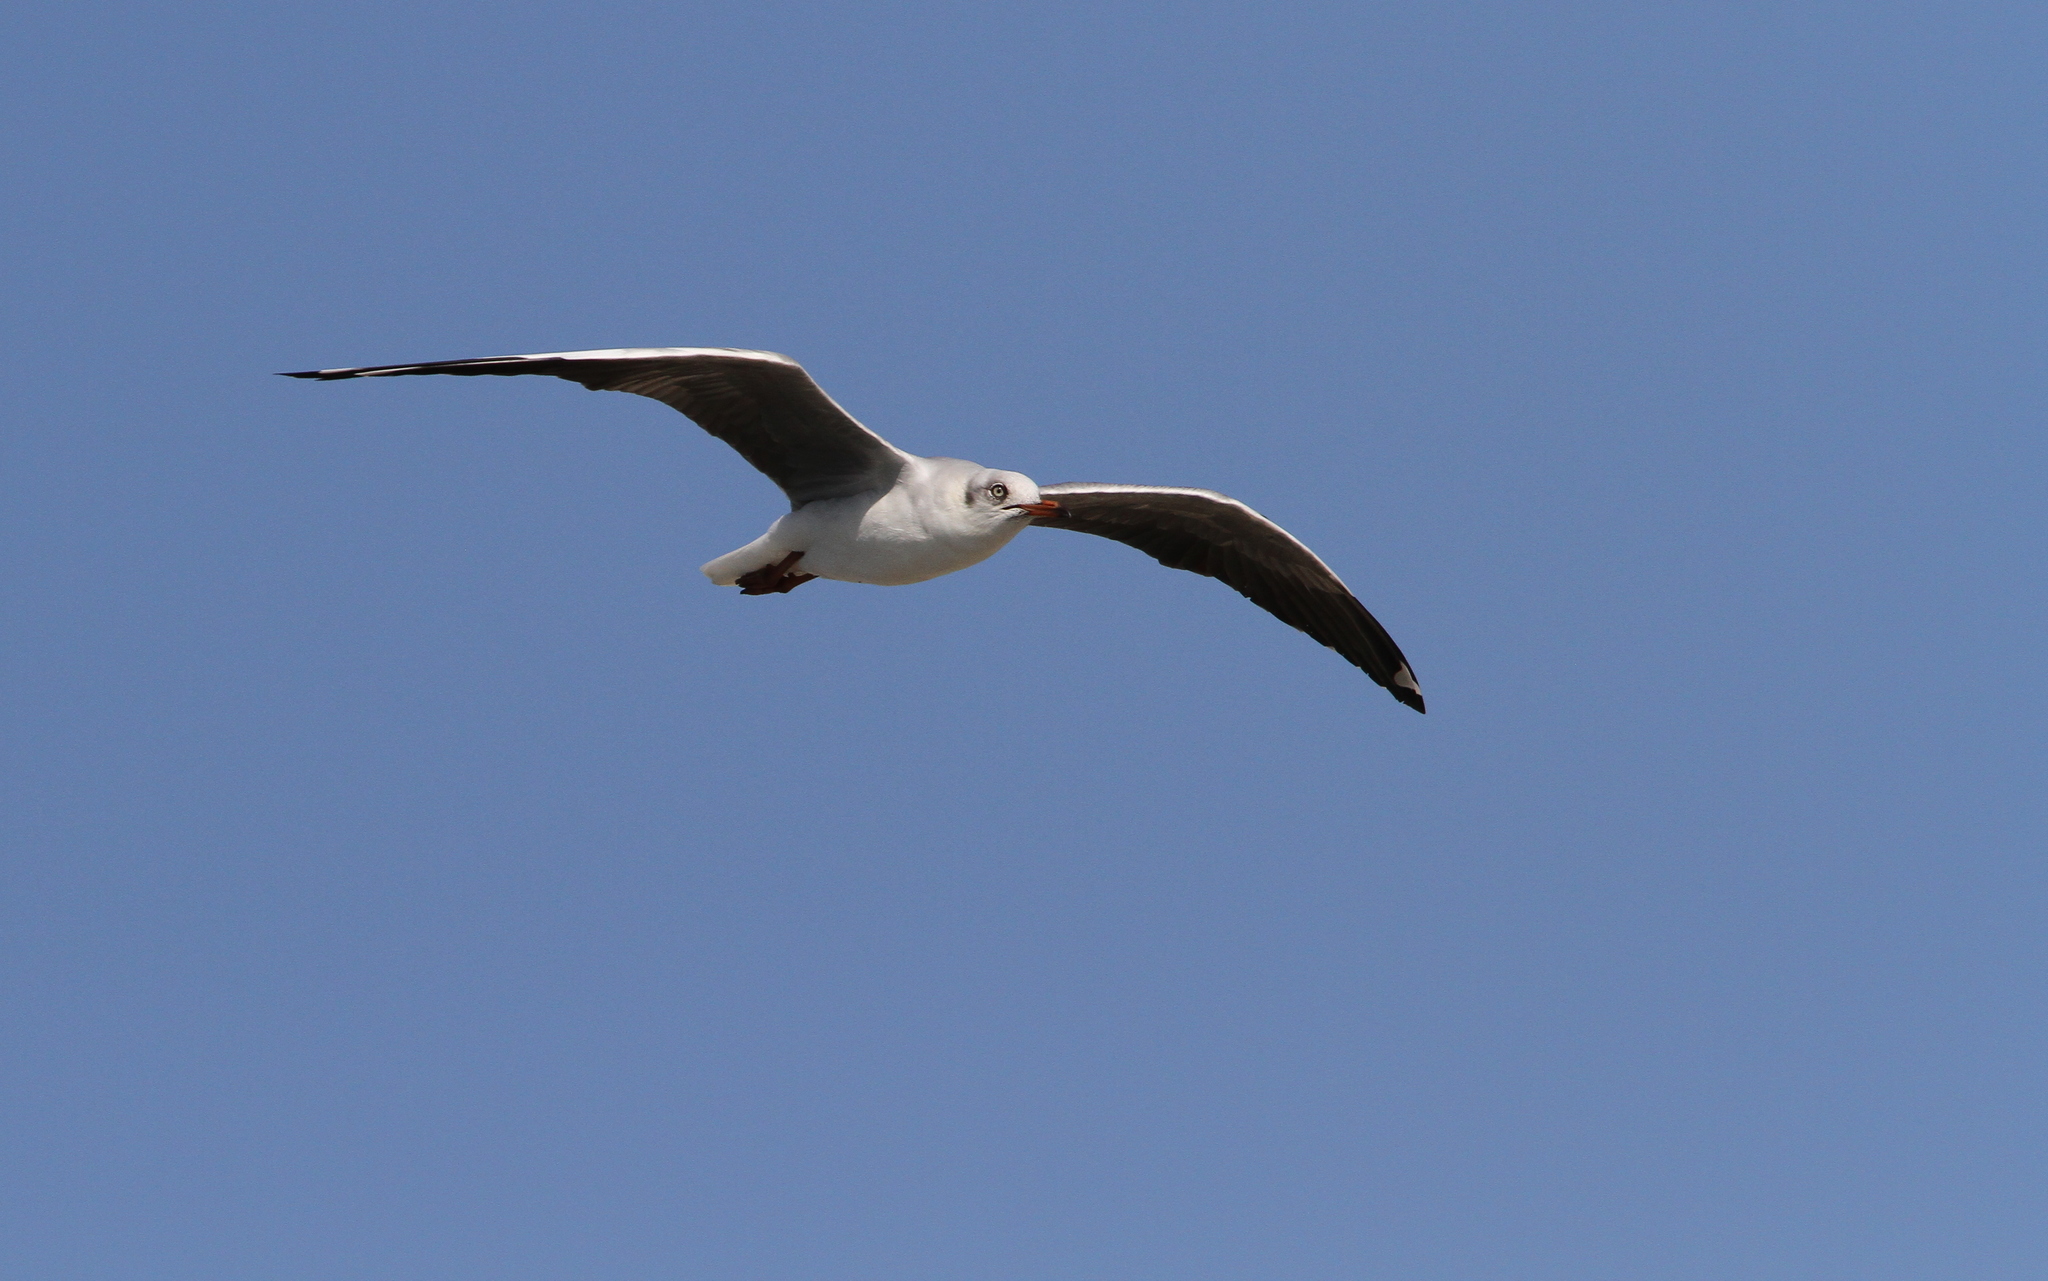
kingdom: Animalia
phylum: Chordata
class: Aves
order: Charadriiformes
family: Laridae
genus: Chroicocephalus
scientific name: Chroicocephalus cirrocephalus
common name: Grey-headed gull
